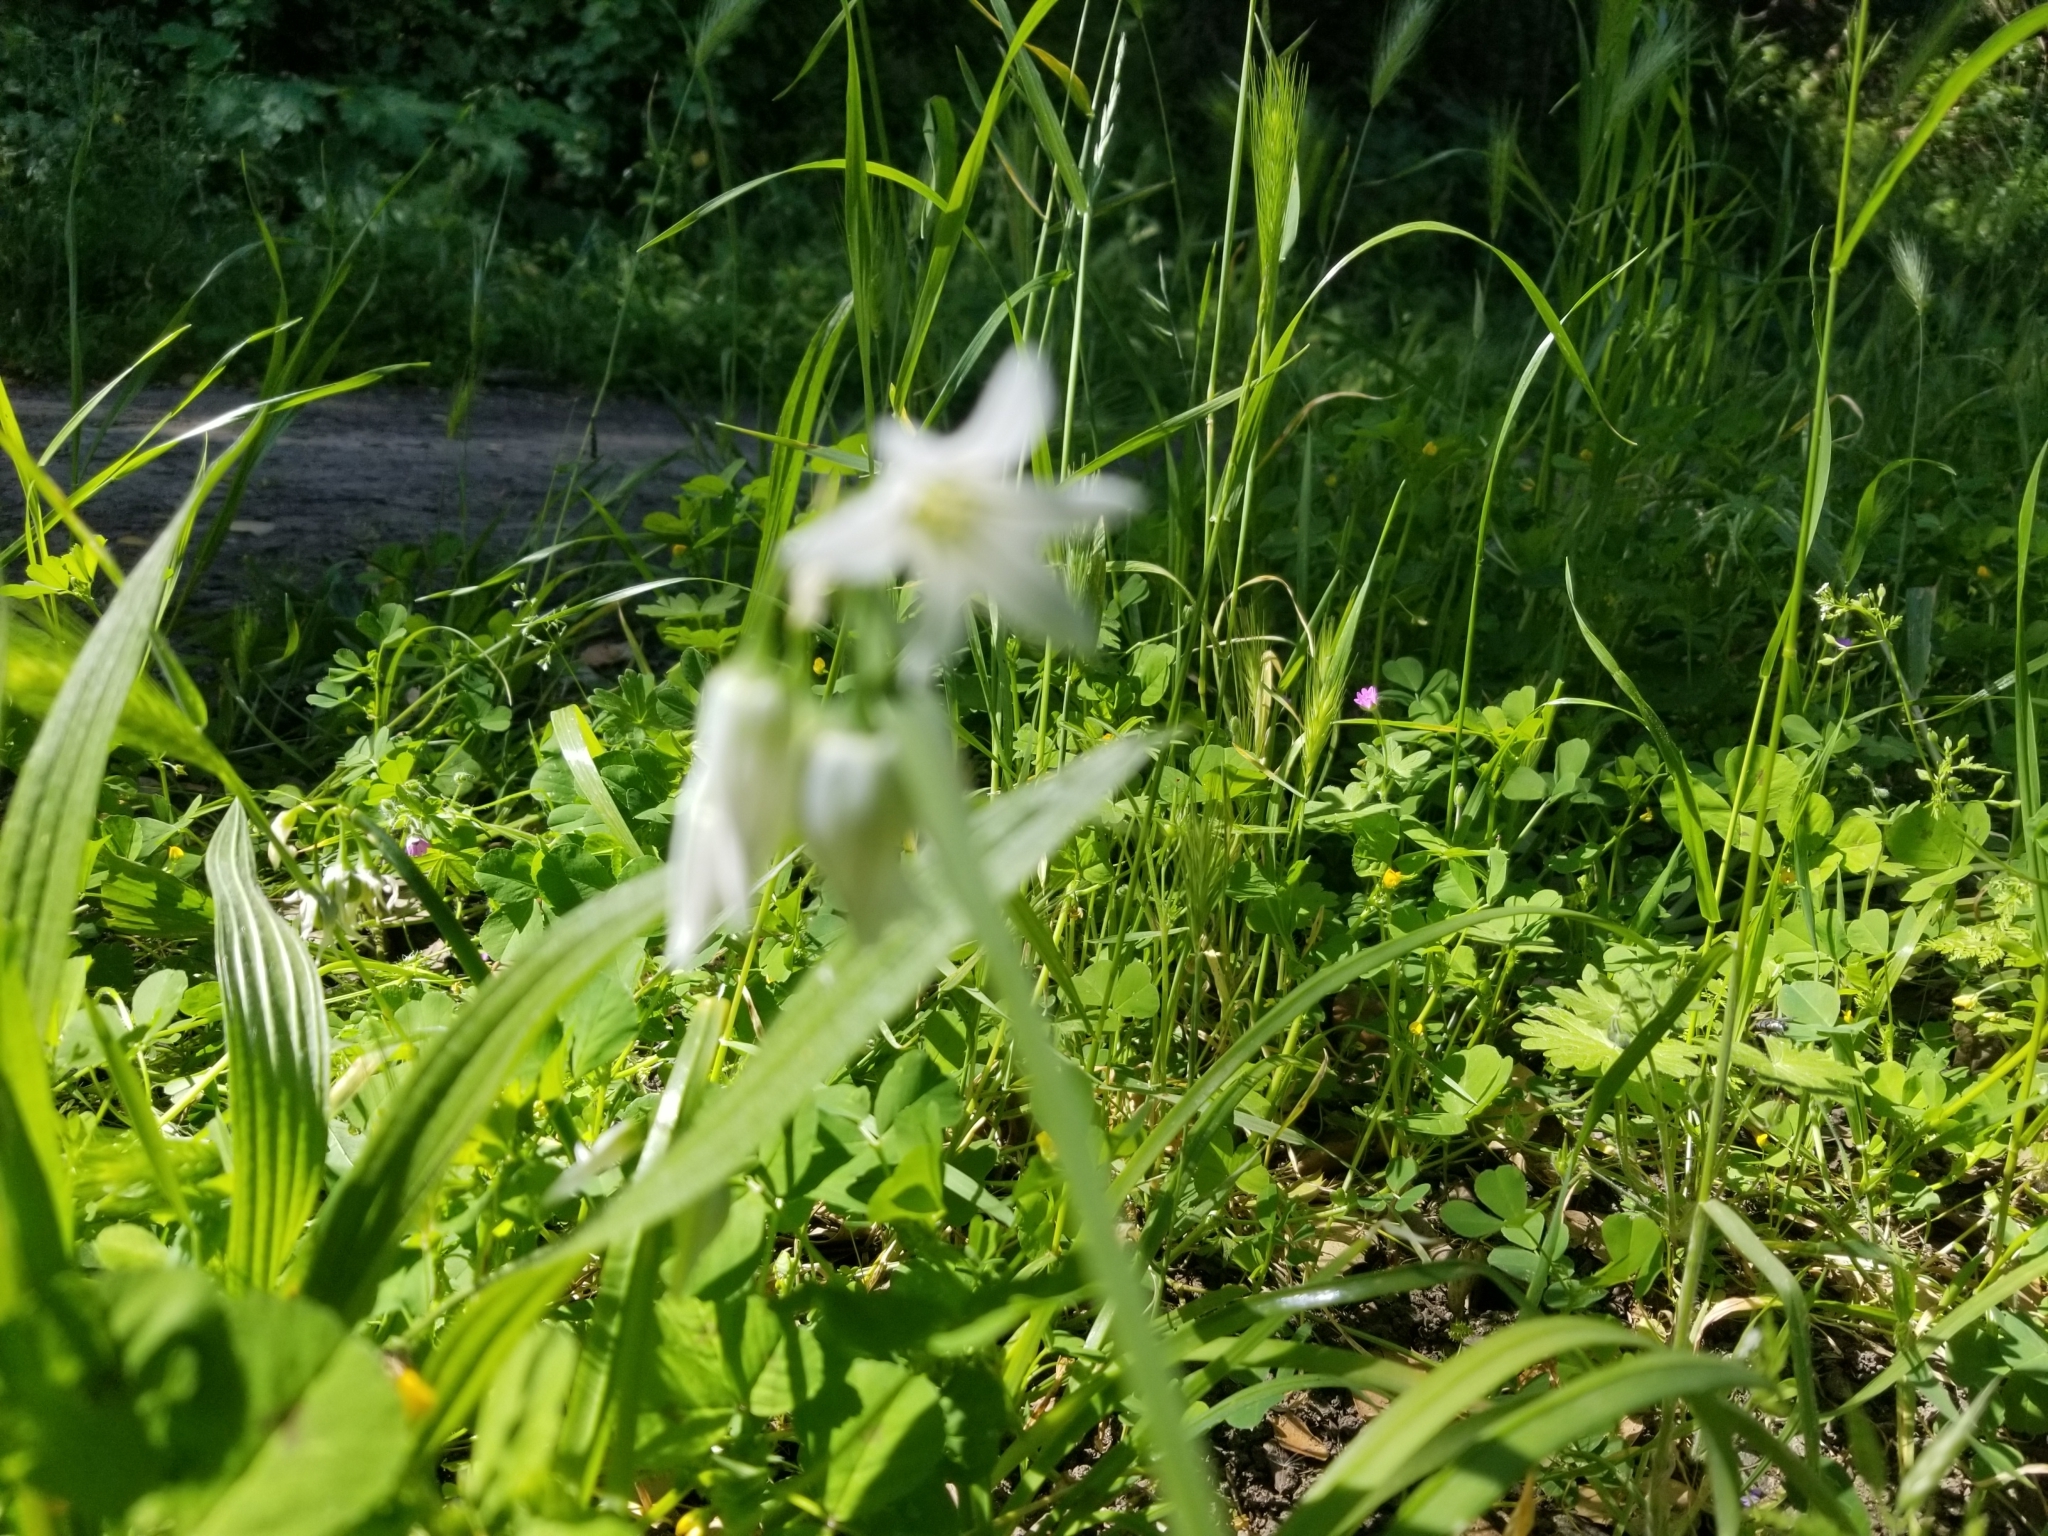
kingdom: Plantae
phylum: Tracheophyta
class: Liliopsida
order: Asparagales
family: Amaryllidaceae
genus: Allium
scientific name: Allium triquetrum
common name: Three-cornered garlic
